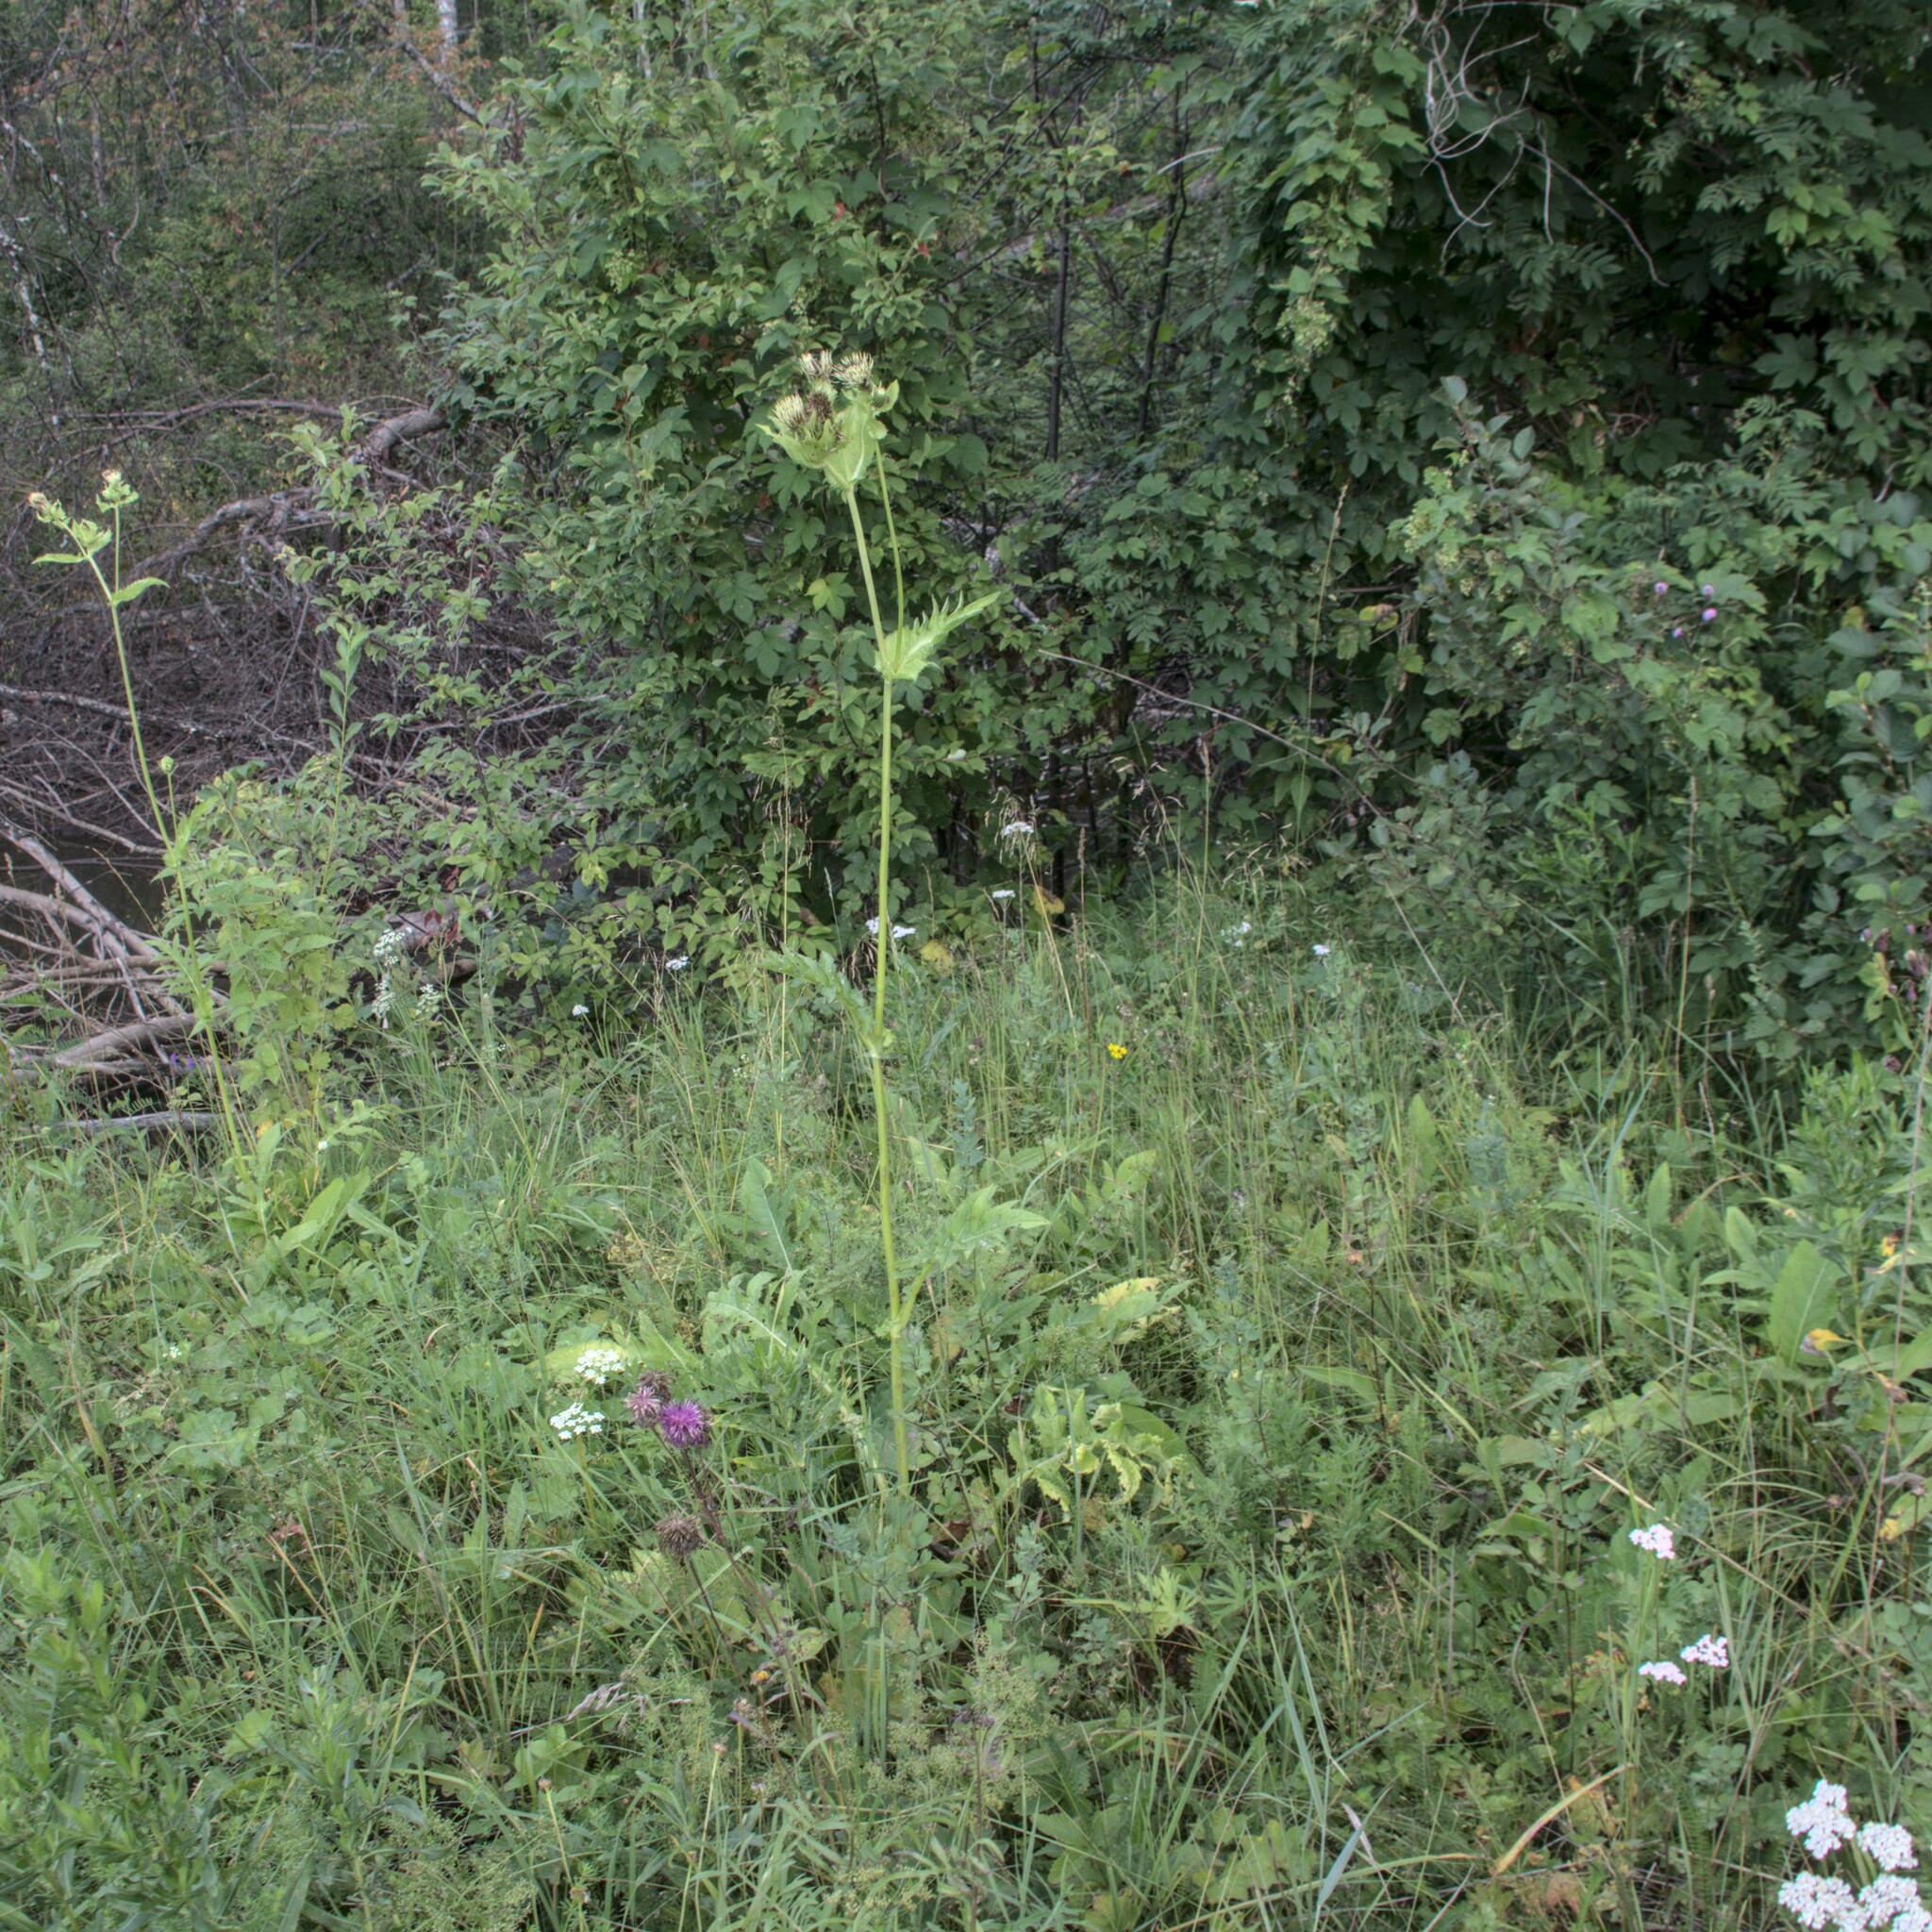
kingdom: Plantae
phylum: Tracheophyta
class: Magnoliopsida
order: Asterales
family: Asteraceae
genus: Cirsium
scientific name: Cirsium oleraceum
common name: Cabbage thistle
